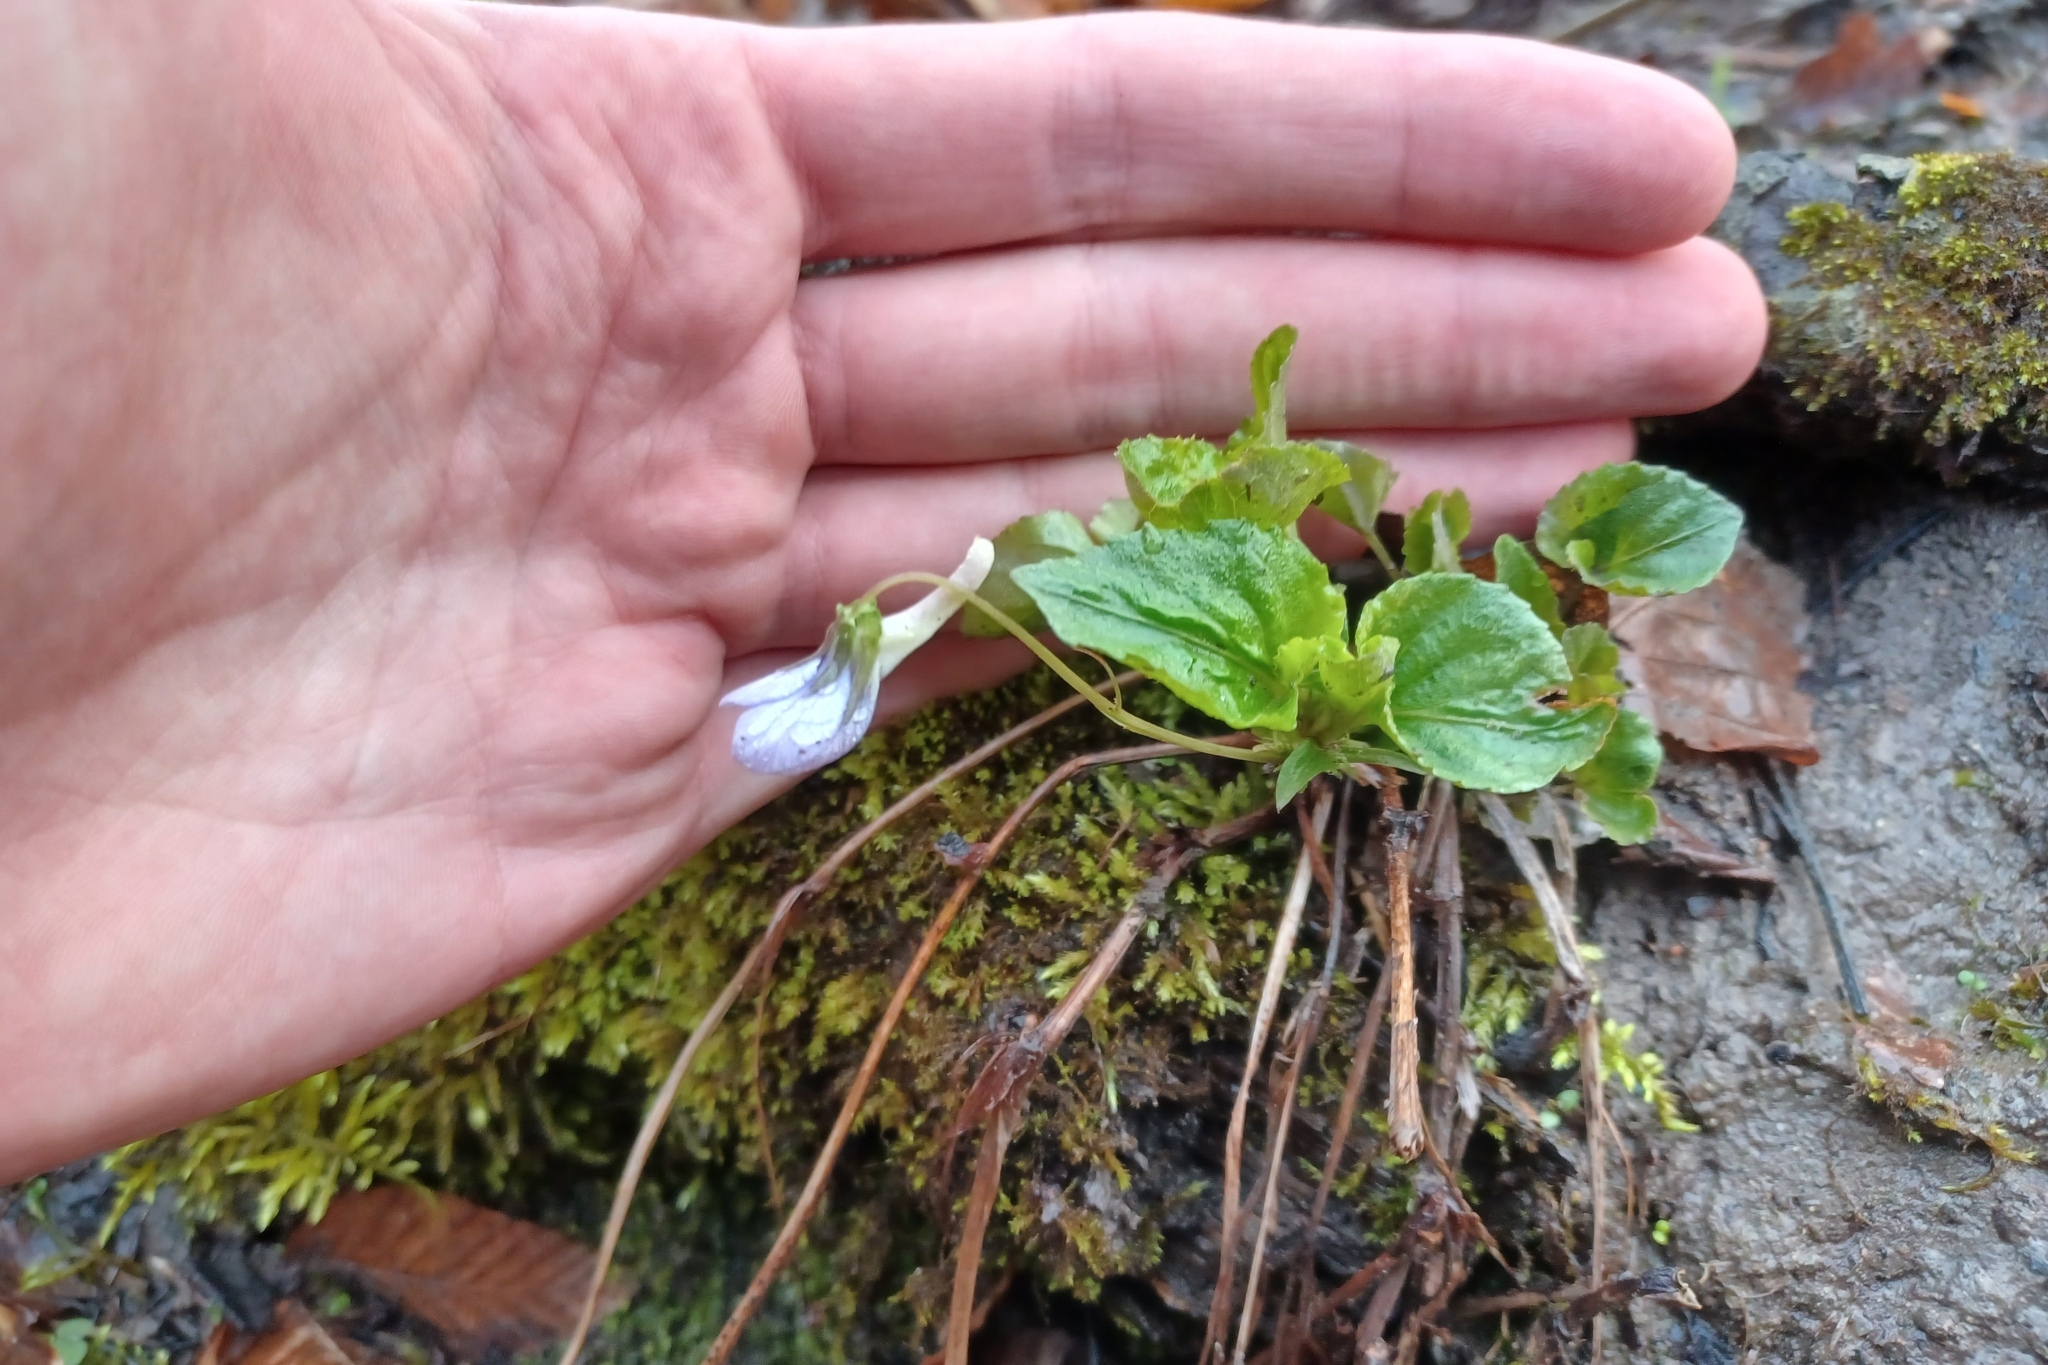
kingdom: Plantae
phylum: Tracheophyta
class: Magnoliopsida
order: Malpighiales
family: Violaceae
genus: Viola
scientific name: Viola rostrata
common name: Long-spur violet
